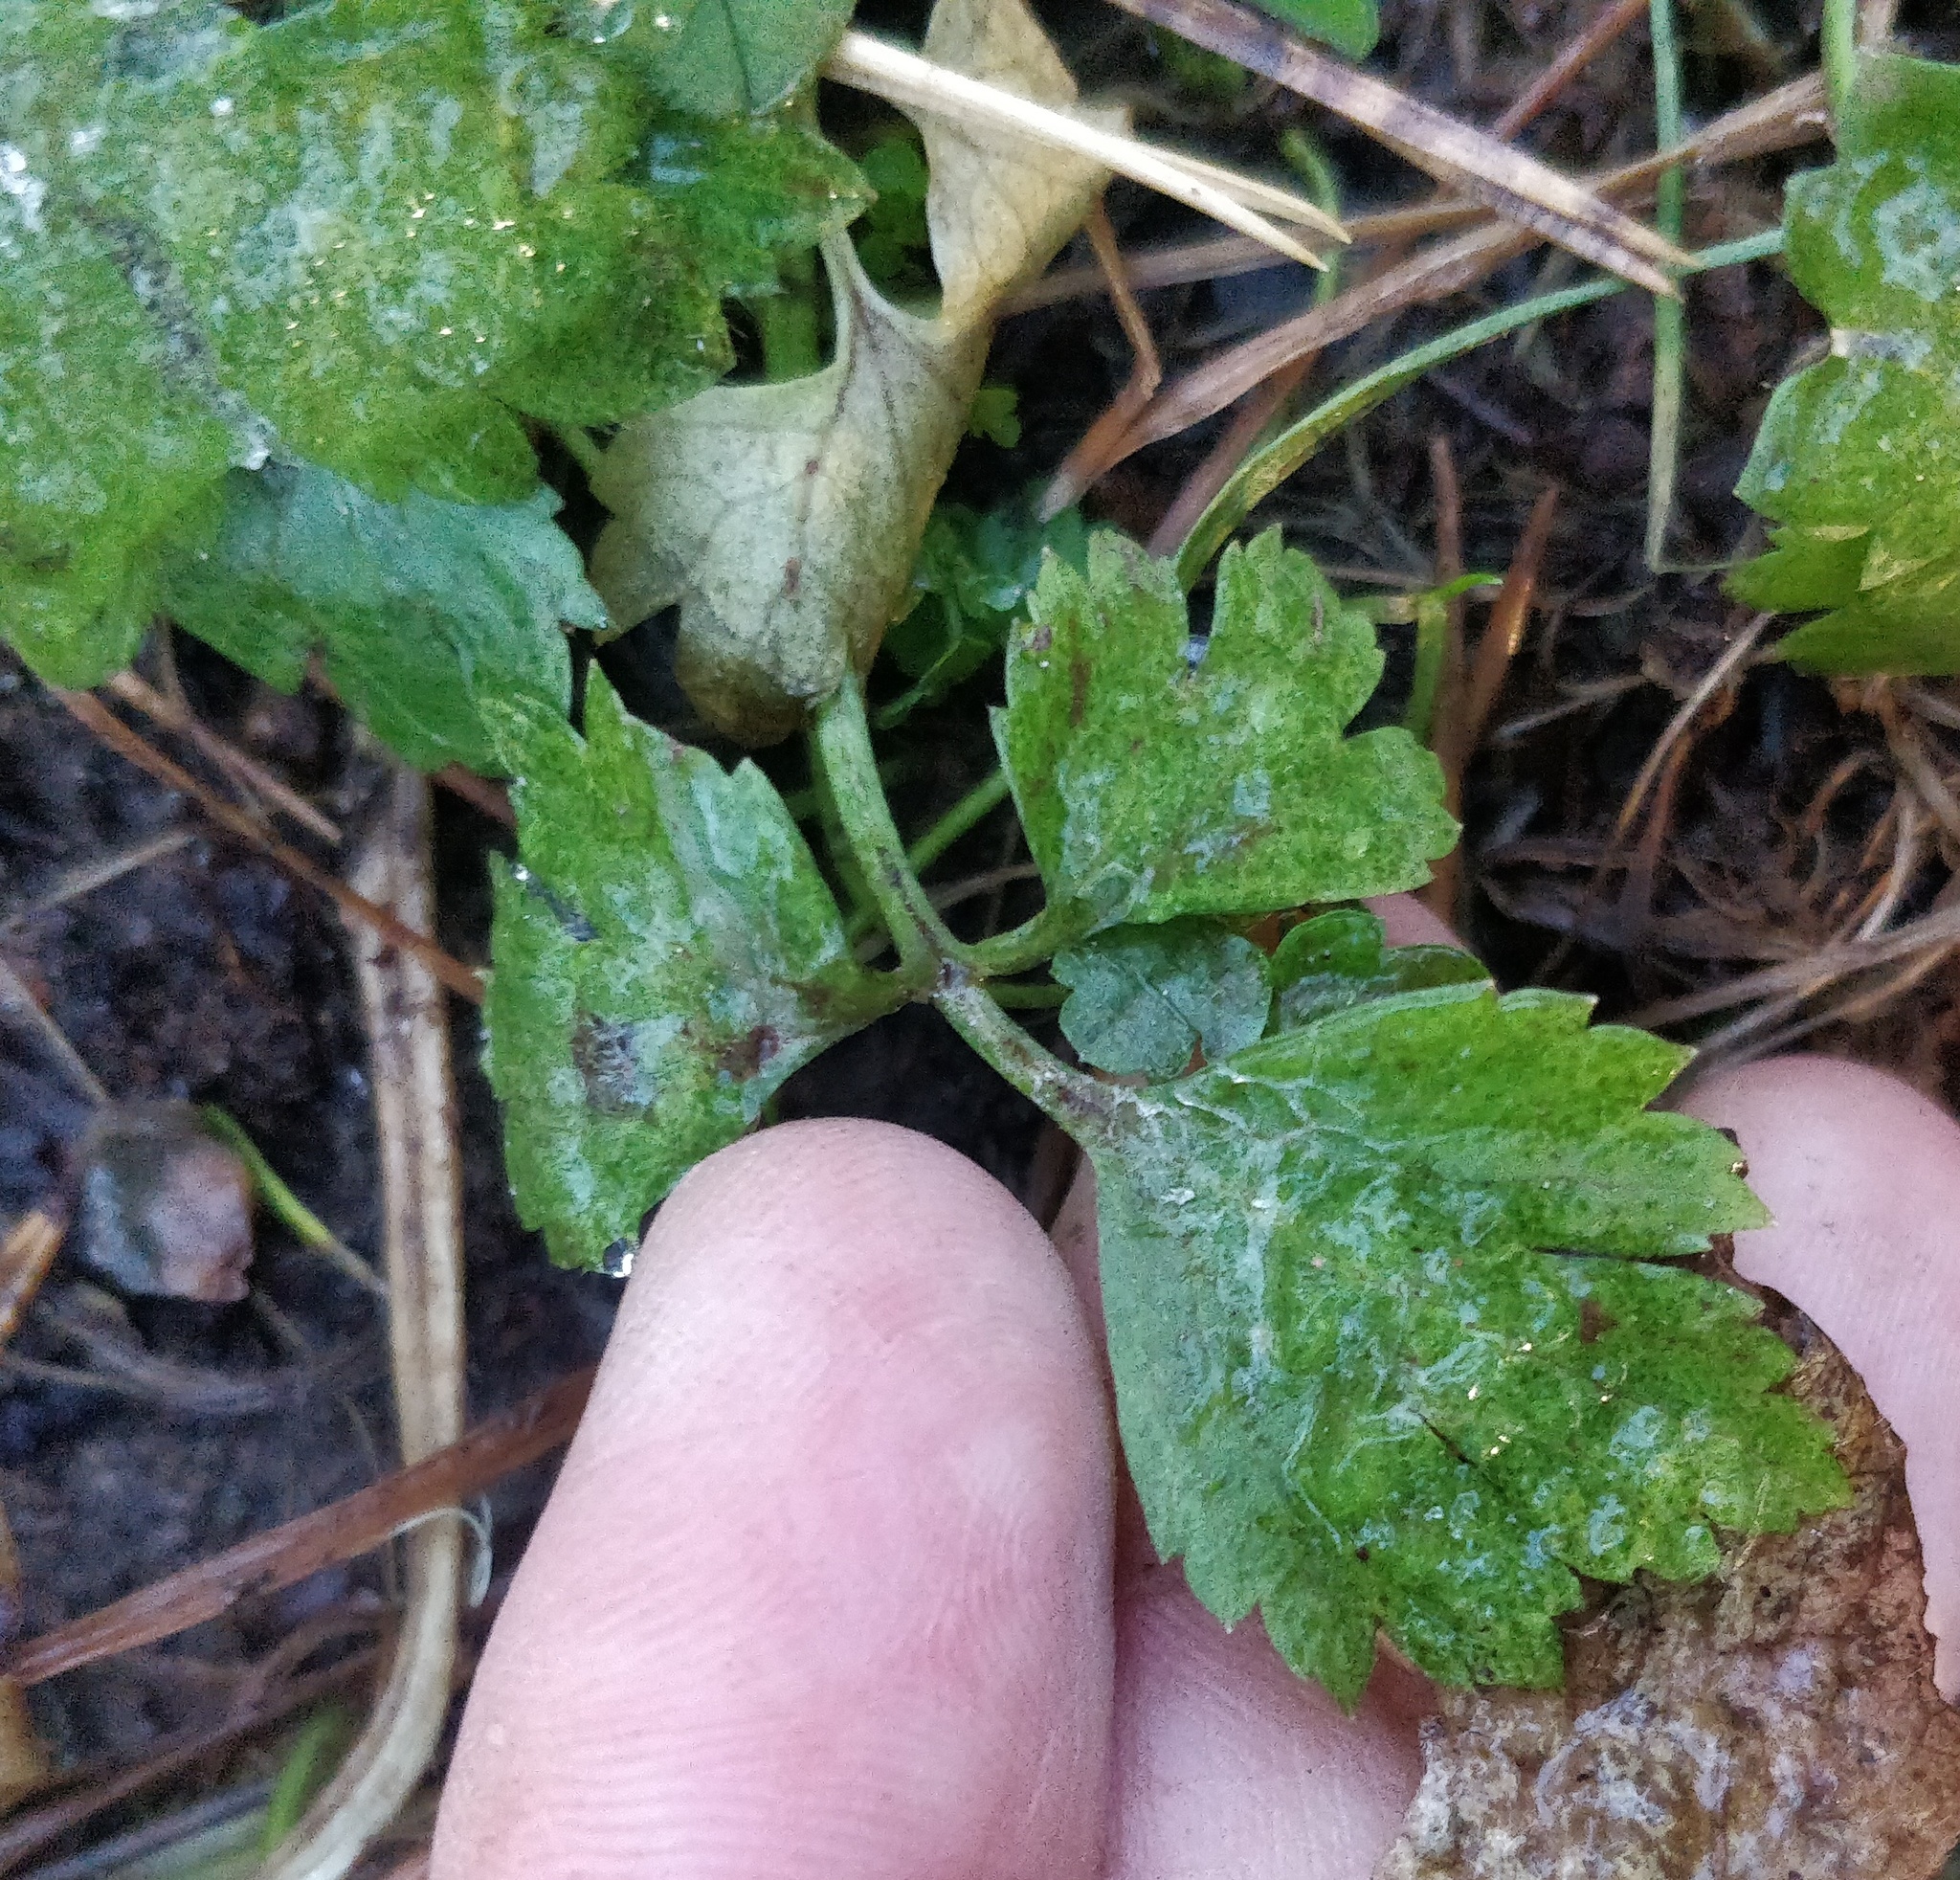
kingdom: Plantae
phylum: Tracheophyta
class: Magnoliopsida
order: Ranunculales
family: Ranunculaceae
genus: Ranunculus
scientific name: Ranunculus repens
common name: Creeping buttercup
